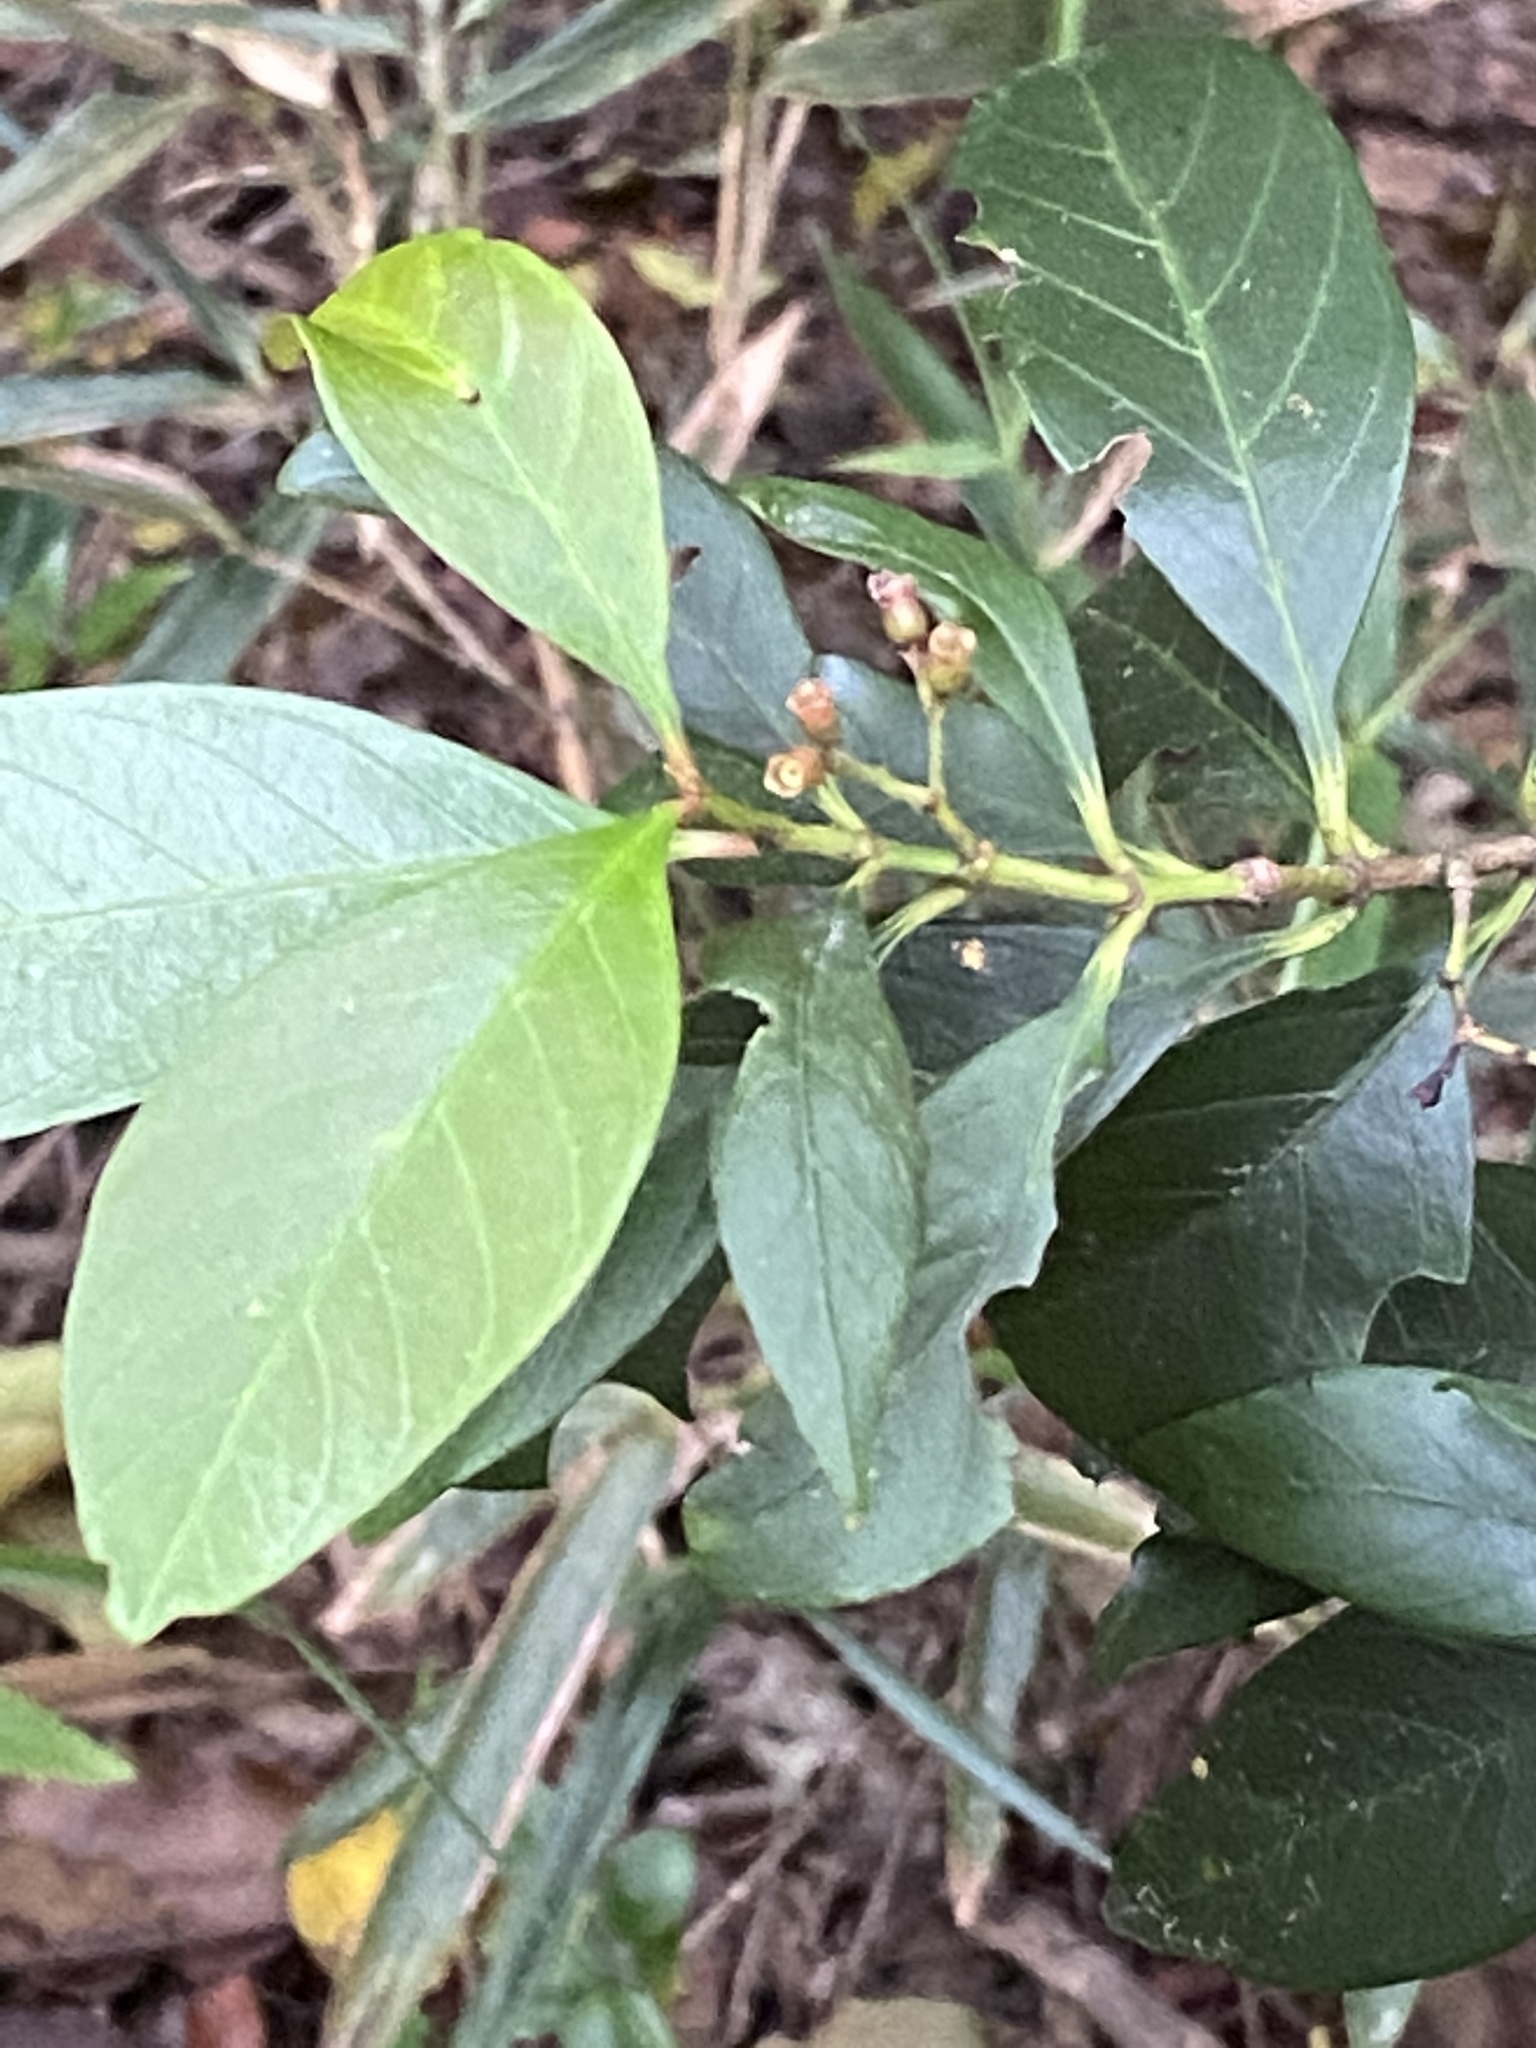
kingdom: Plantae
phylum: Tracheophyta
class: Magnoliopsida
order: Gentianales
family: Rubiaceae
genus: Aidia
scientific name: Aidia cochinchinensis
